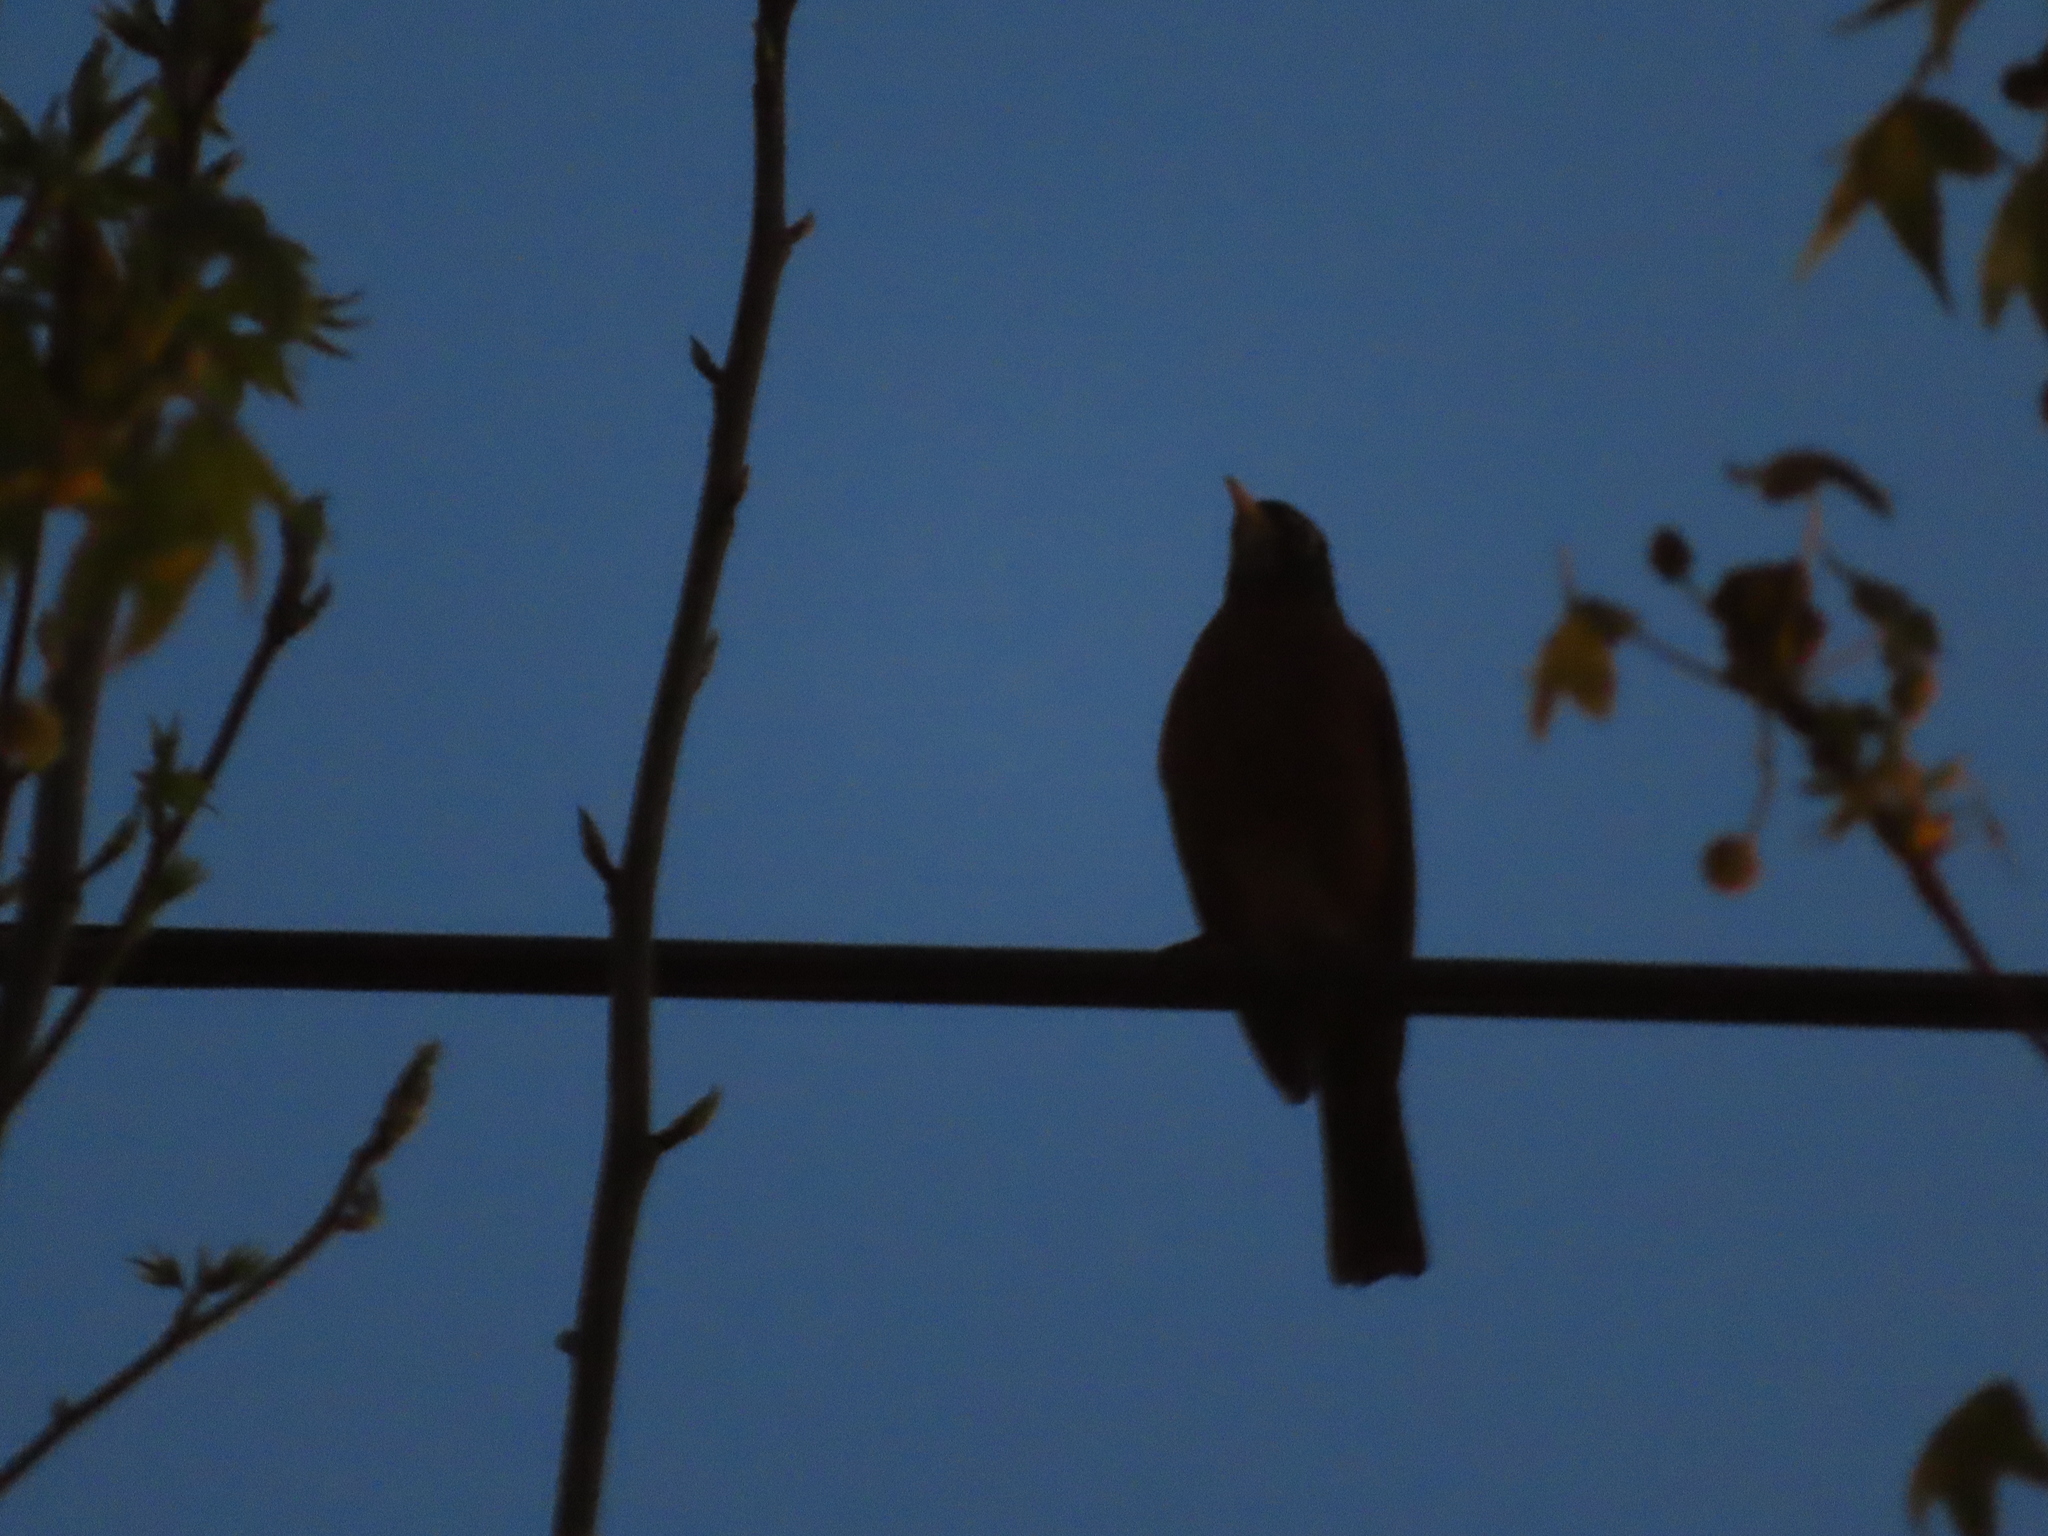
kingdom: Animalia
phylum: Chordata
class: Aves
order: Passeriformes
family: Turdidae
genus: Turdus
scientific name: Turdus migratorius
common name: American robin
